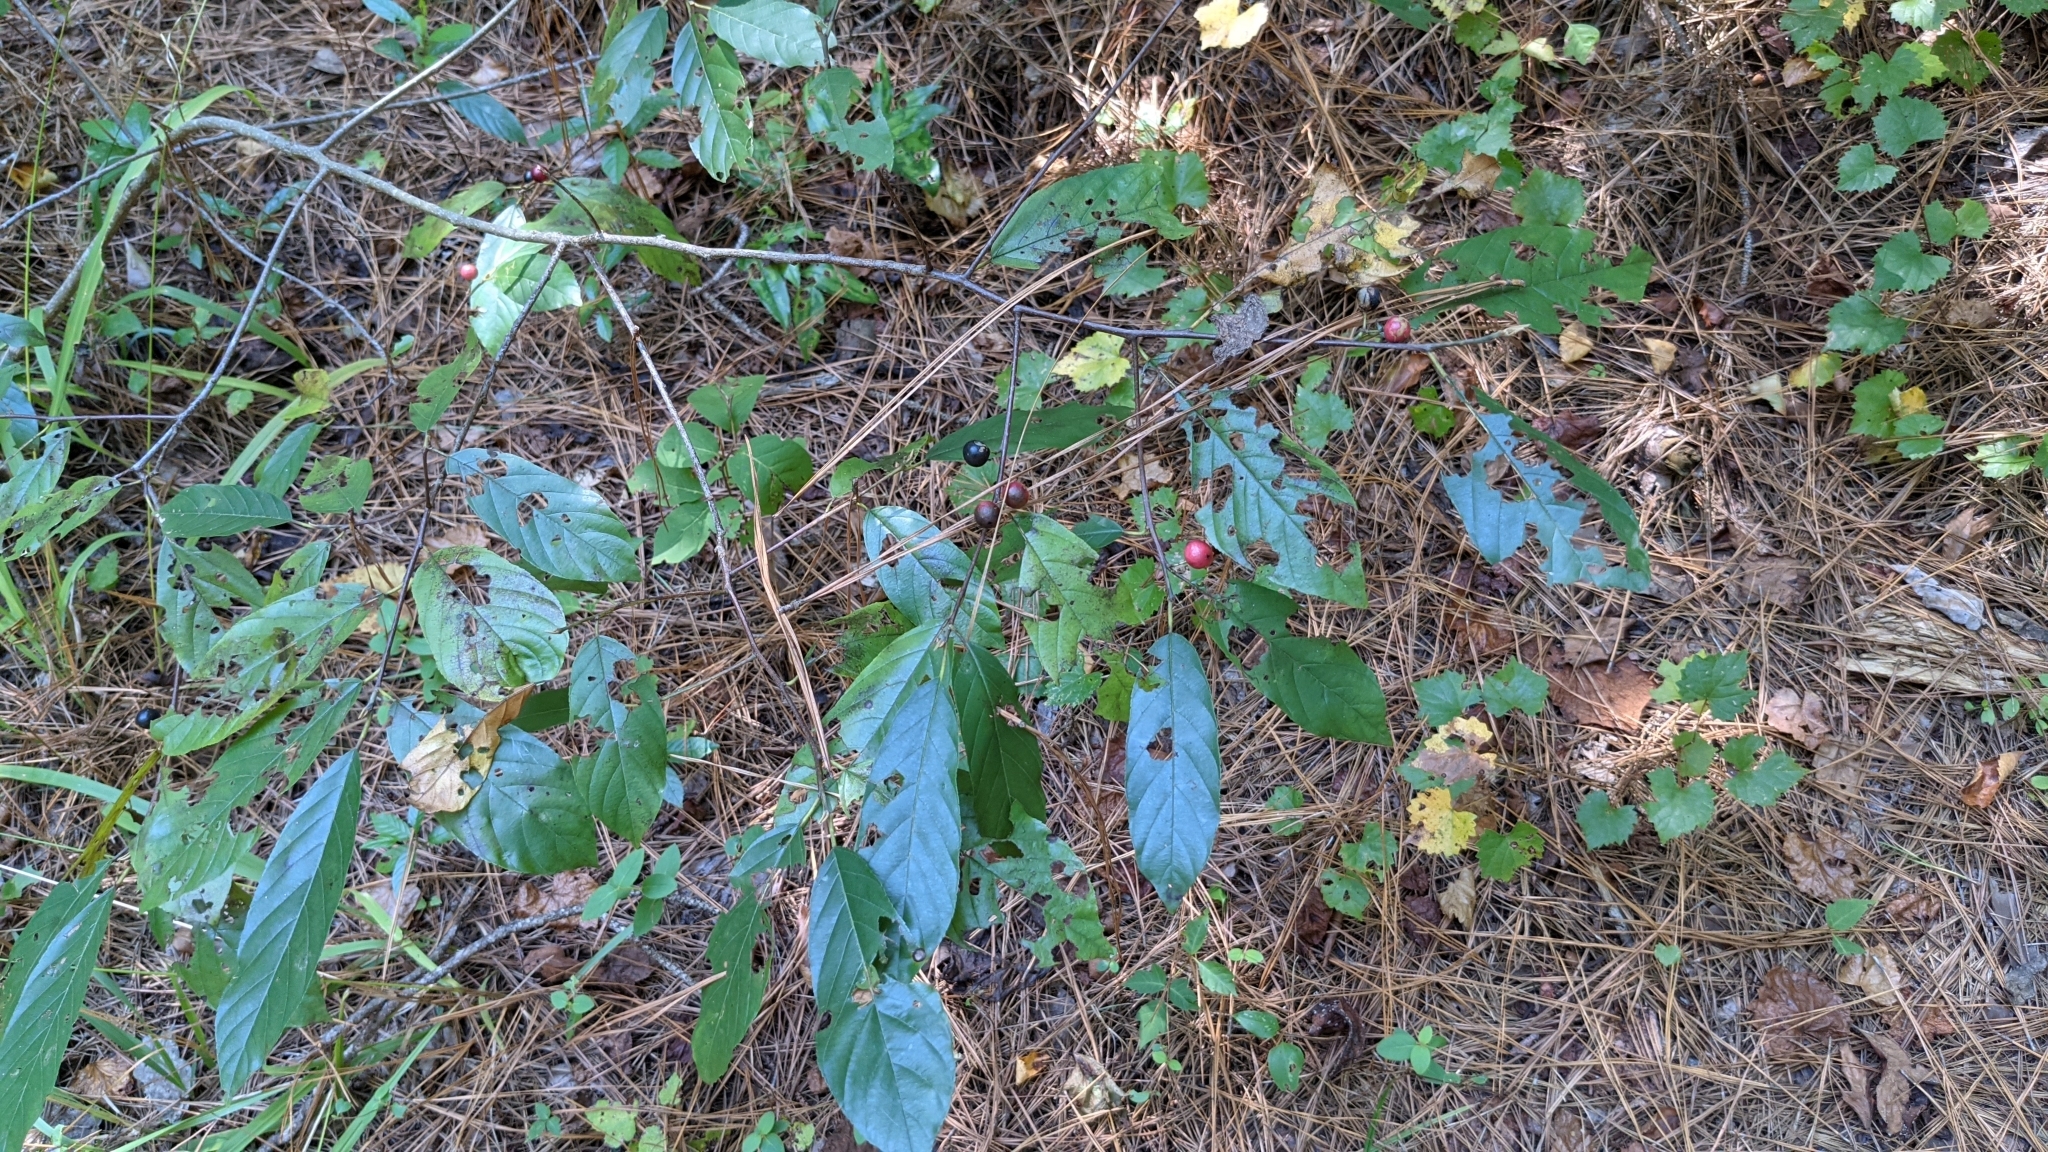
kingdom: Plantae
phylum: Tracheophyta
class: Magnoliopsida
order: Rosales
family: Rhamnaceae
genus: Frangula
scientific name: Frangula caroliniana
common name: Carolina buckthorn
